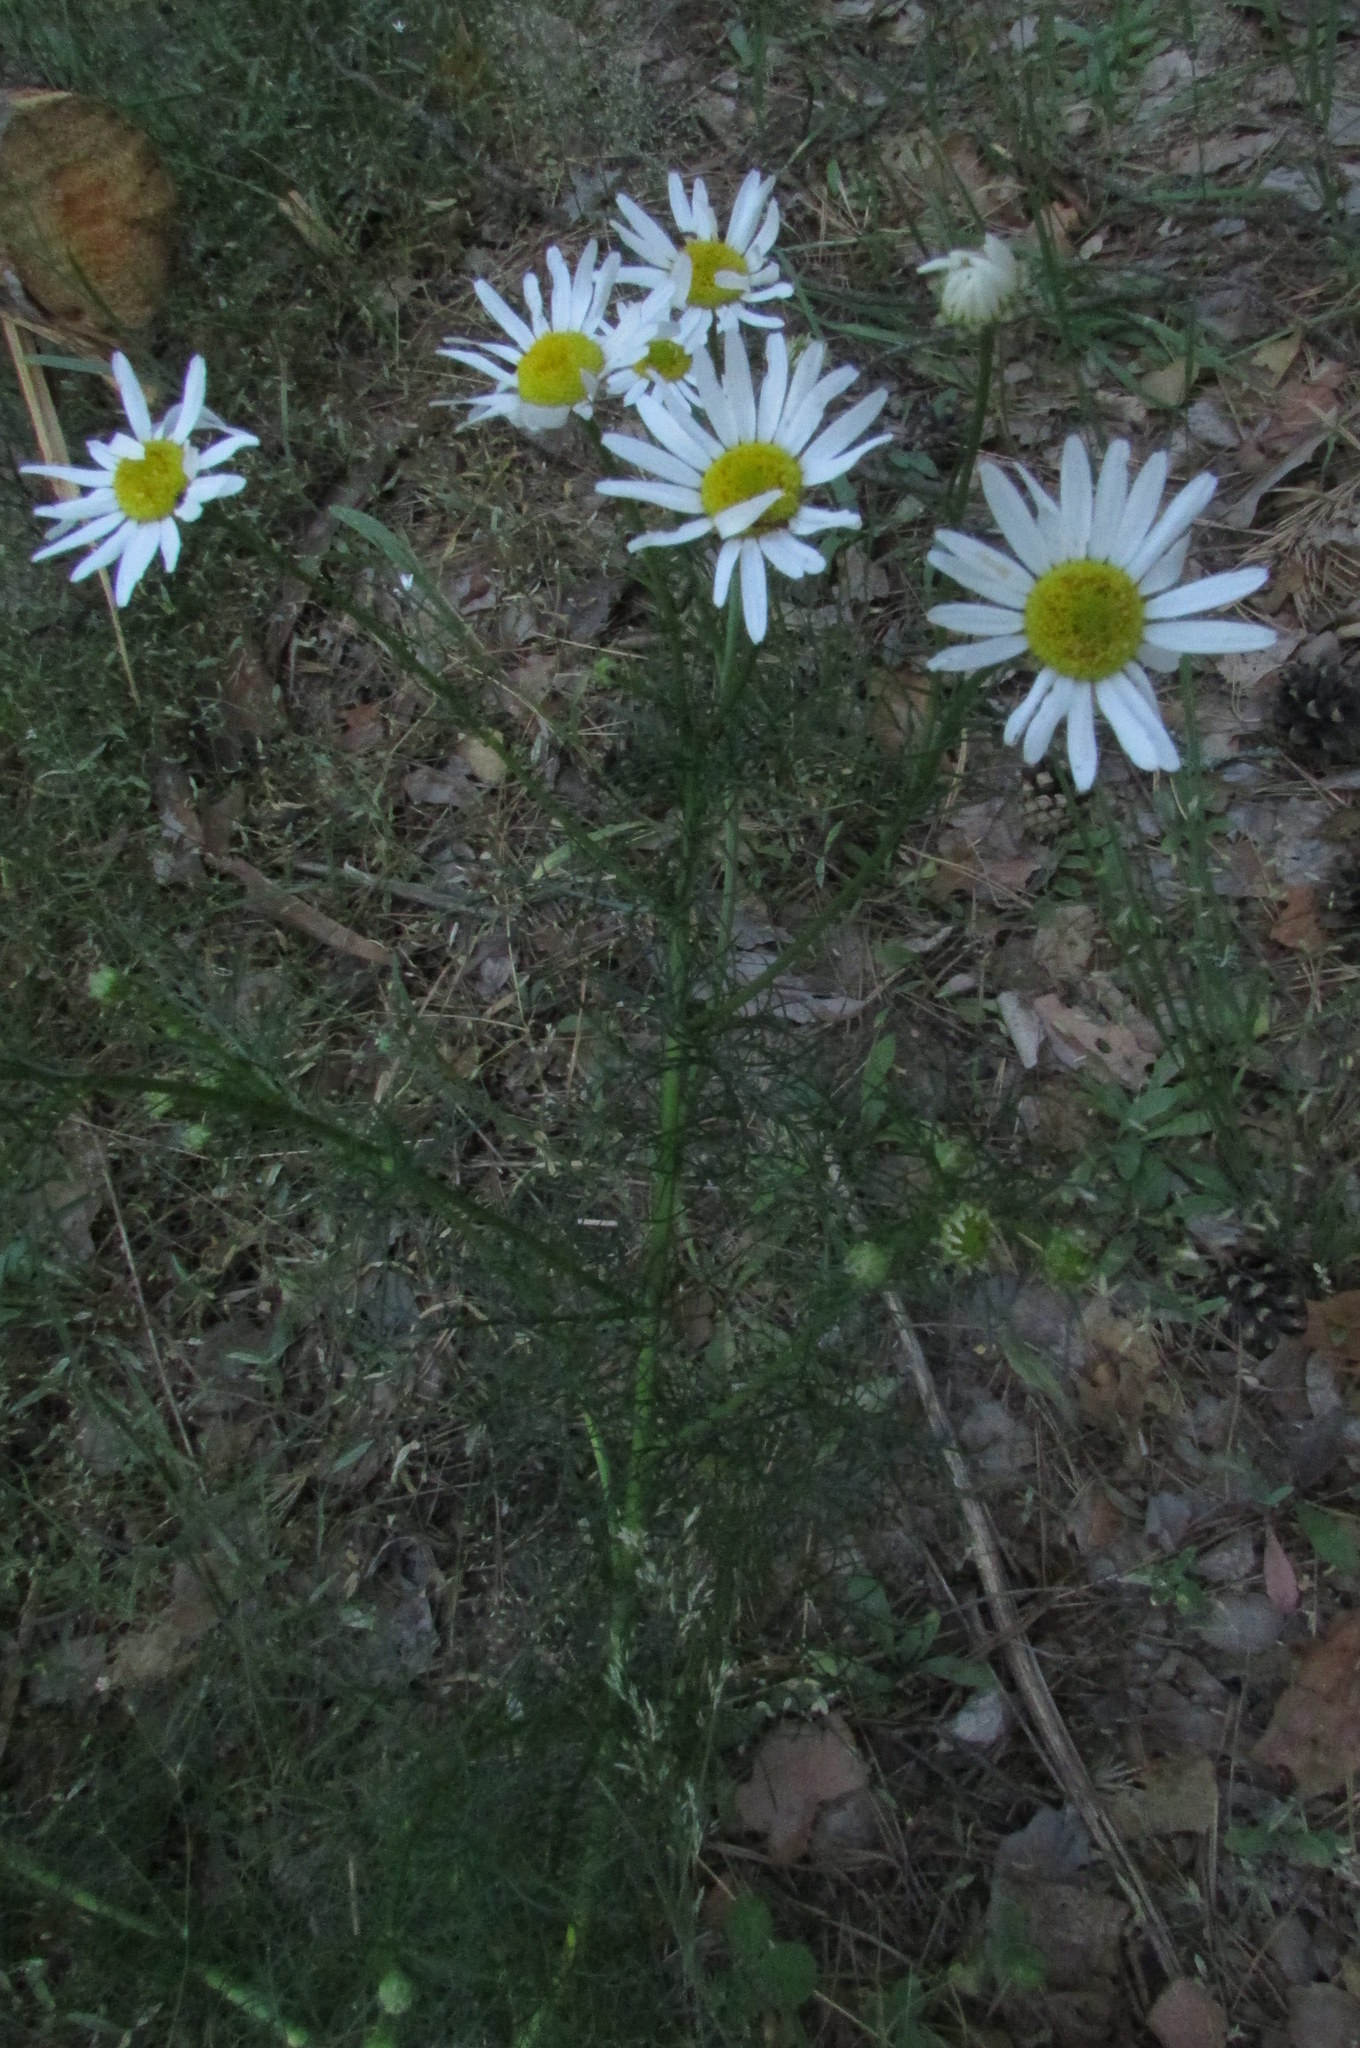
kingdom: Plantae
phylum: Tracheophyta
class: Magnoliopsida
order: Asterales
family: Asteraceae
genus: Tripleurospermum
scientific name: Tripleurospermum inodorum
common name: Scentless mayweed
